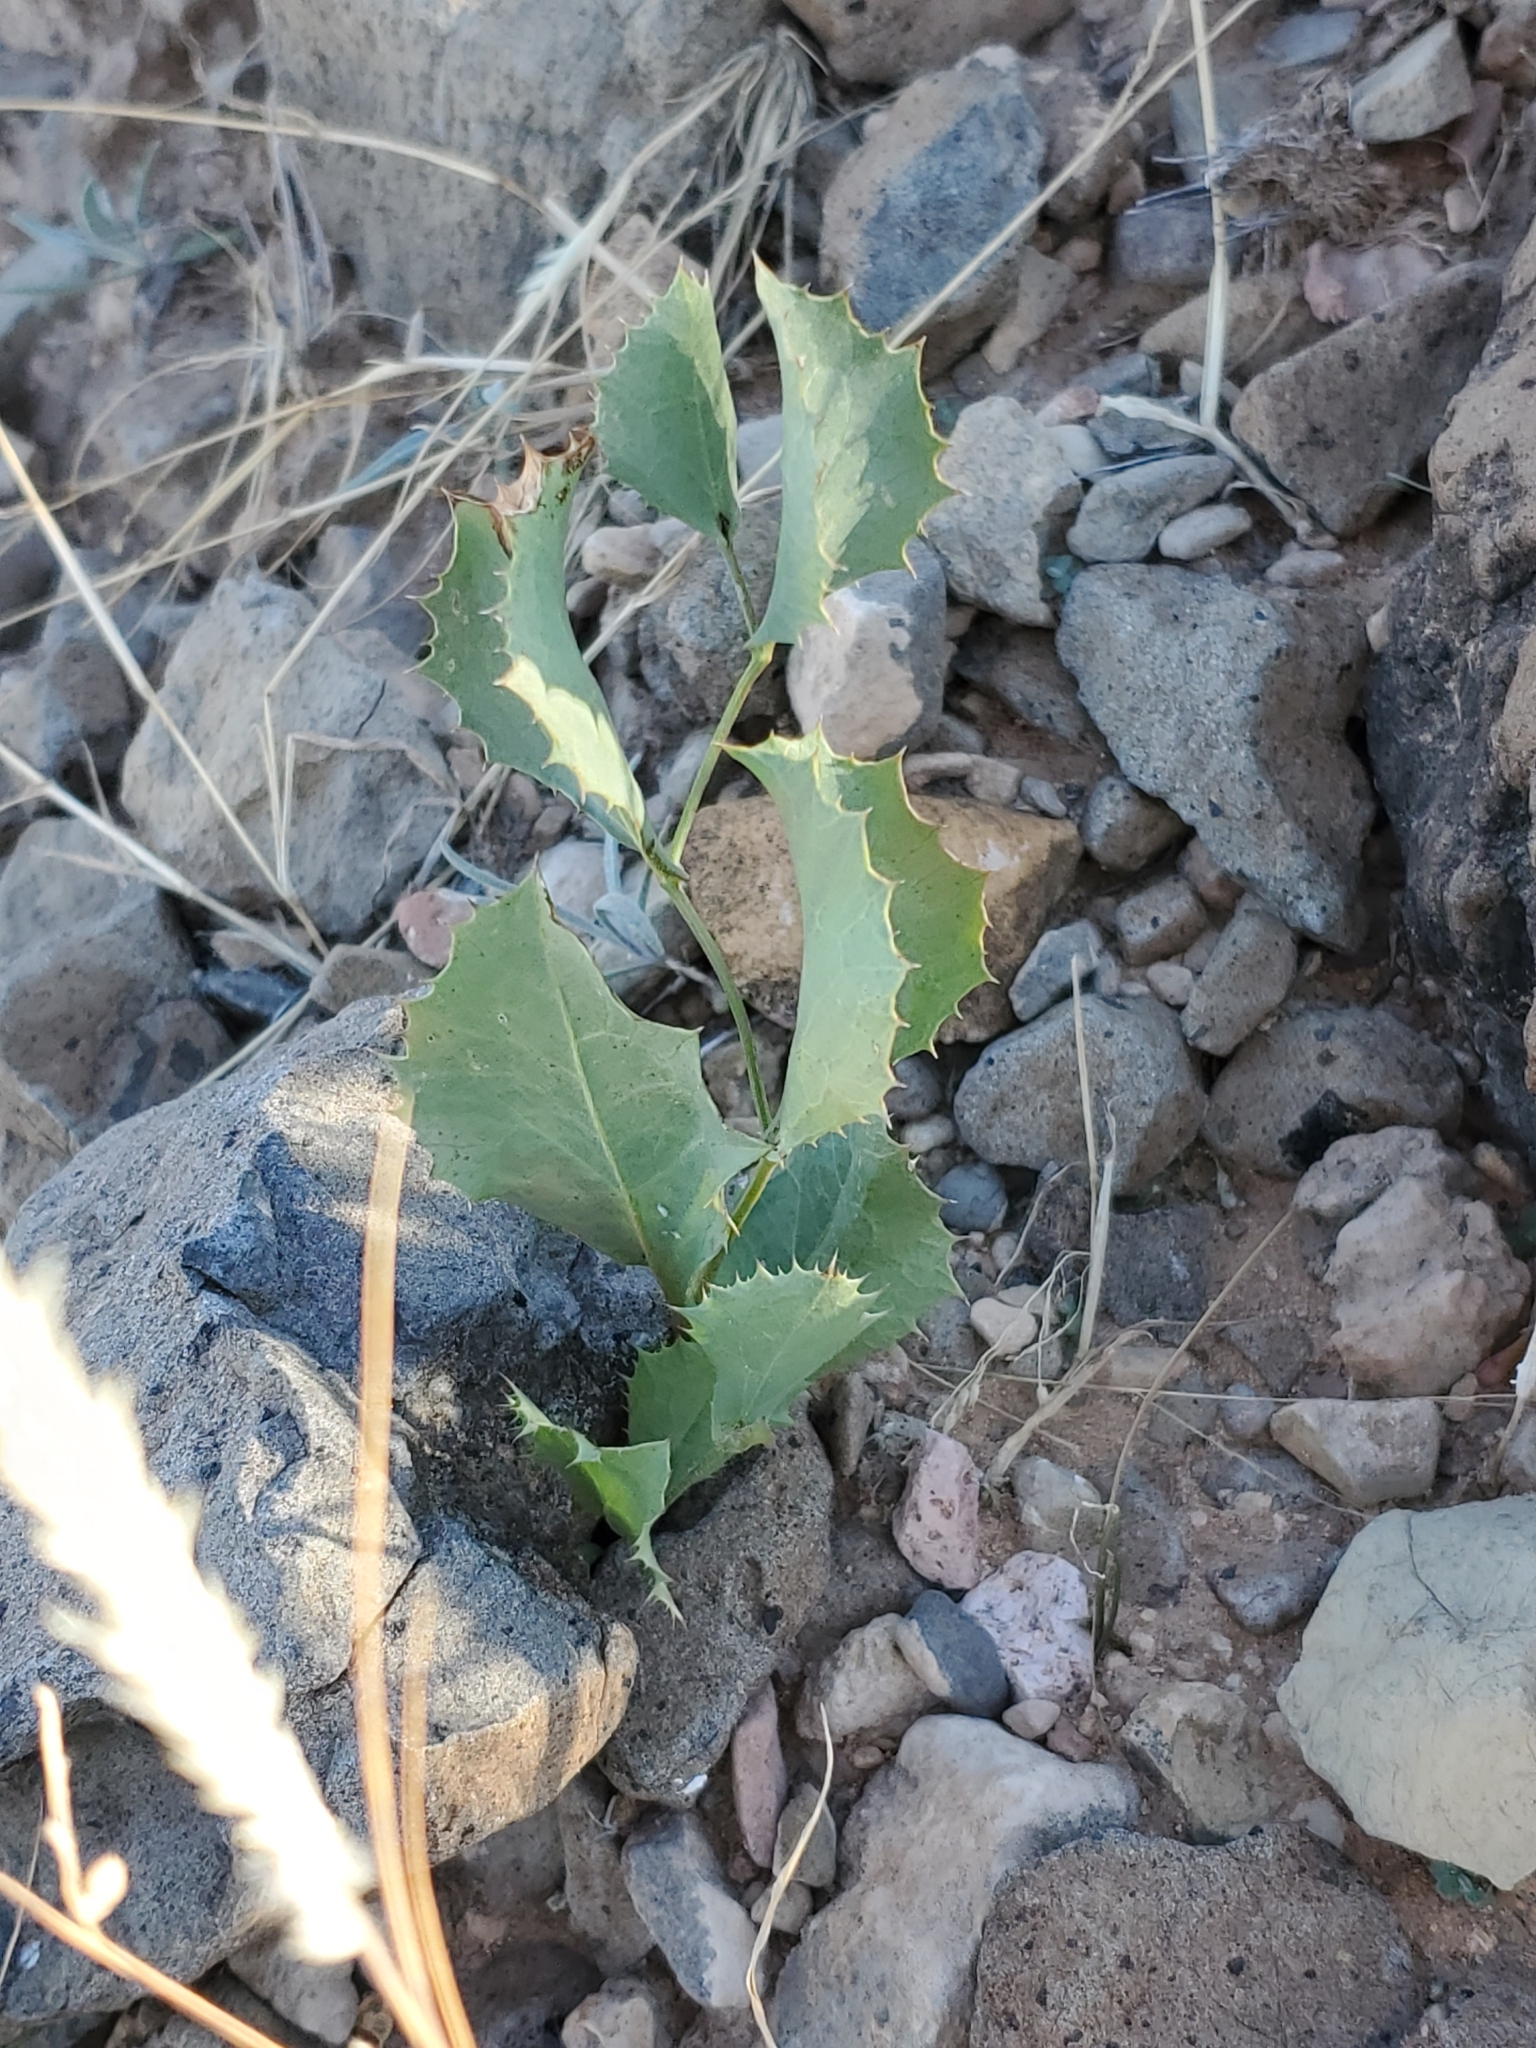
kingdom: Plantae
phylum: Tracheophyta
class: Magnoliopsida
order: Asterales
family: Asteraceae
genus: Acourtia
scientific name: Acourtia nana
